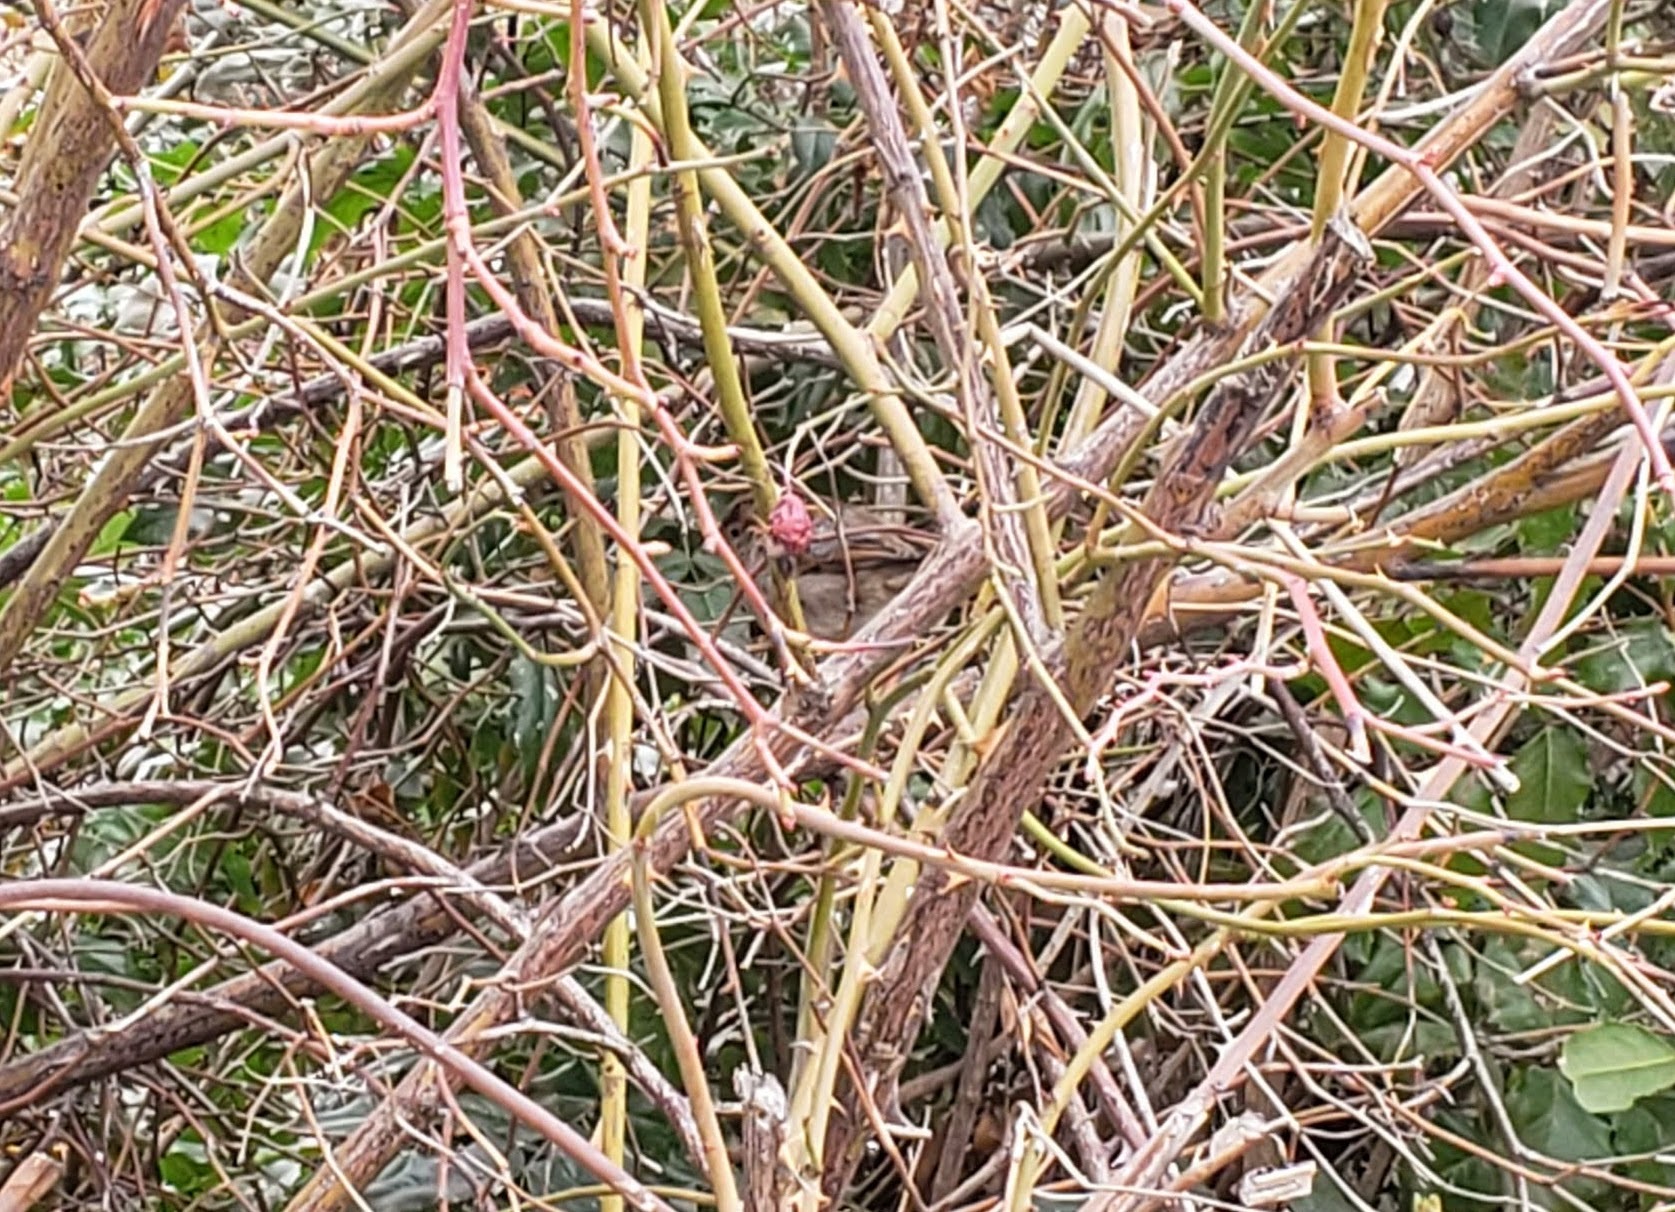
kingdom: Animalia
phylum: Chordata
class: Aves
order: Passeriformes
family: Passerellidae
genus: Melospiza
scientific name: Melospiza melodia
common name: Song sparrow
